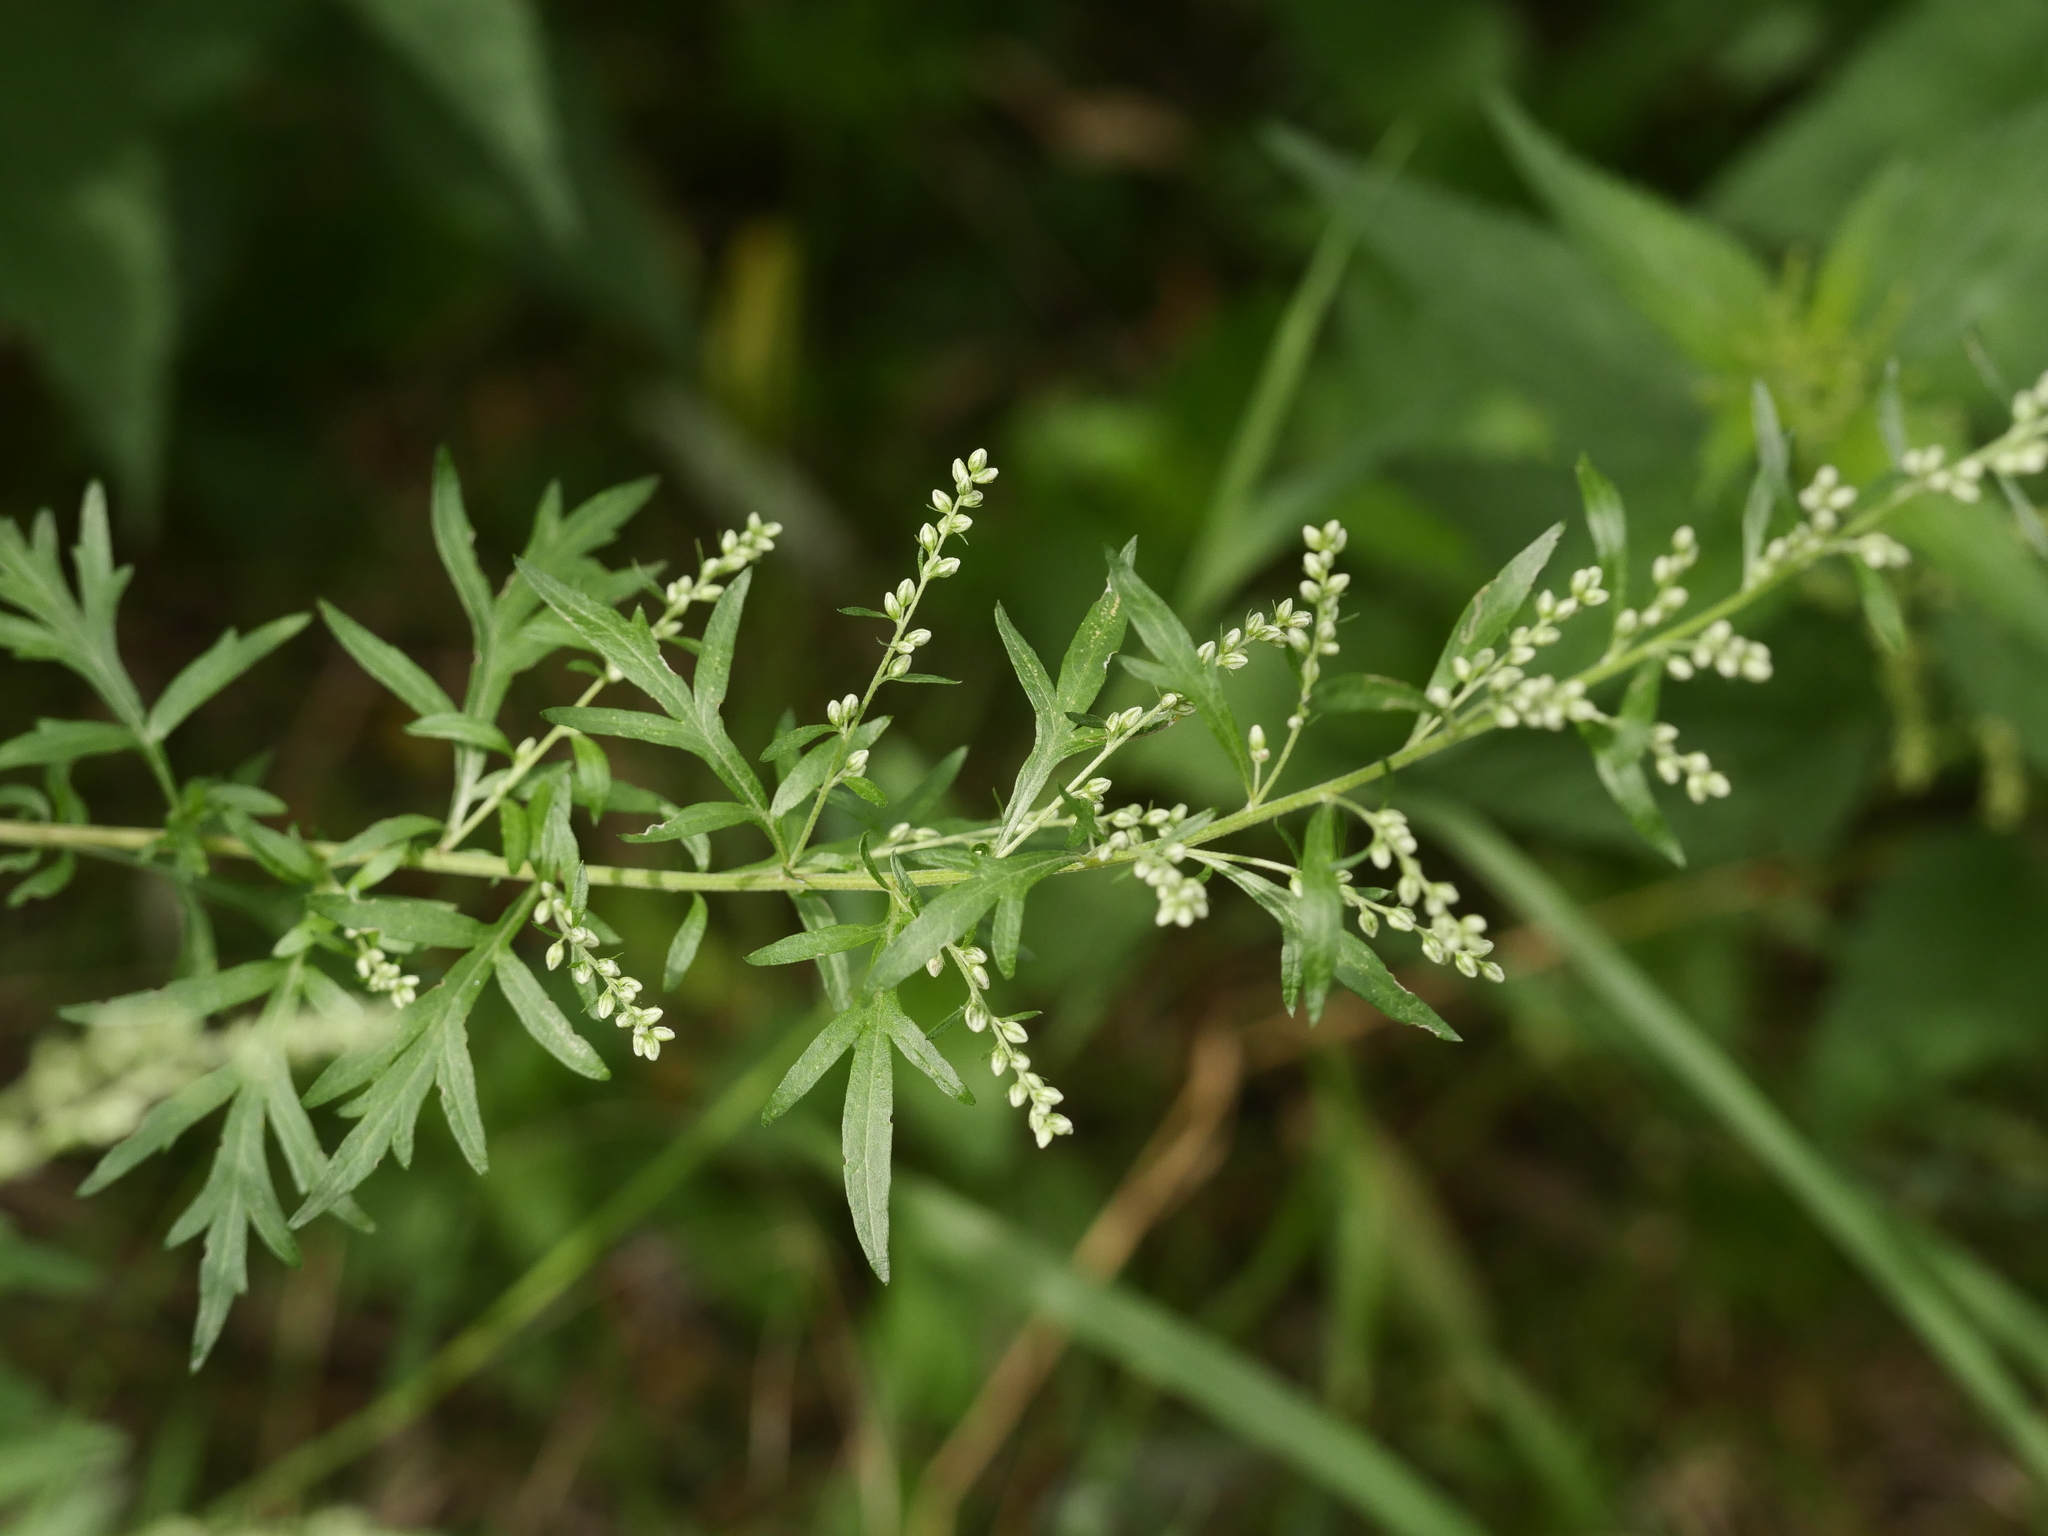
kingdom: Plantae
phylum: Tracheophyta
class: Magnoliopsida
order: Asterales
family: Asteraceae
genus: Artemisia
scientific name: Artemisia vulgaris
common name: Mugwort
